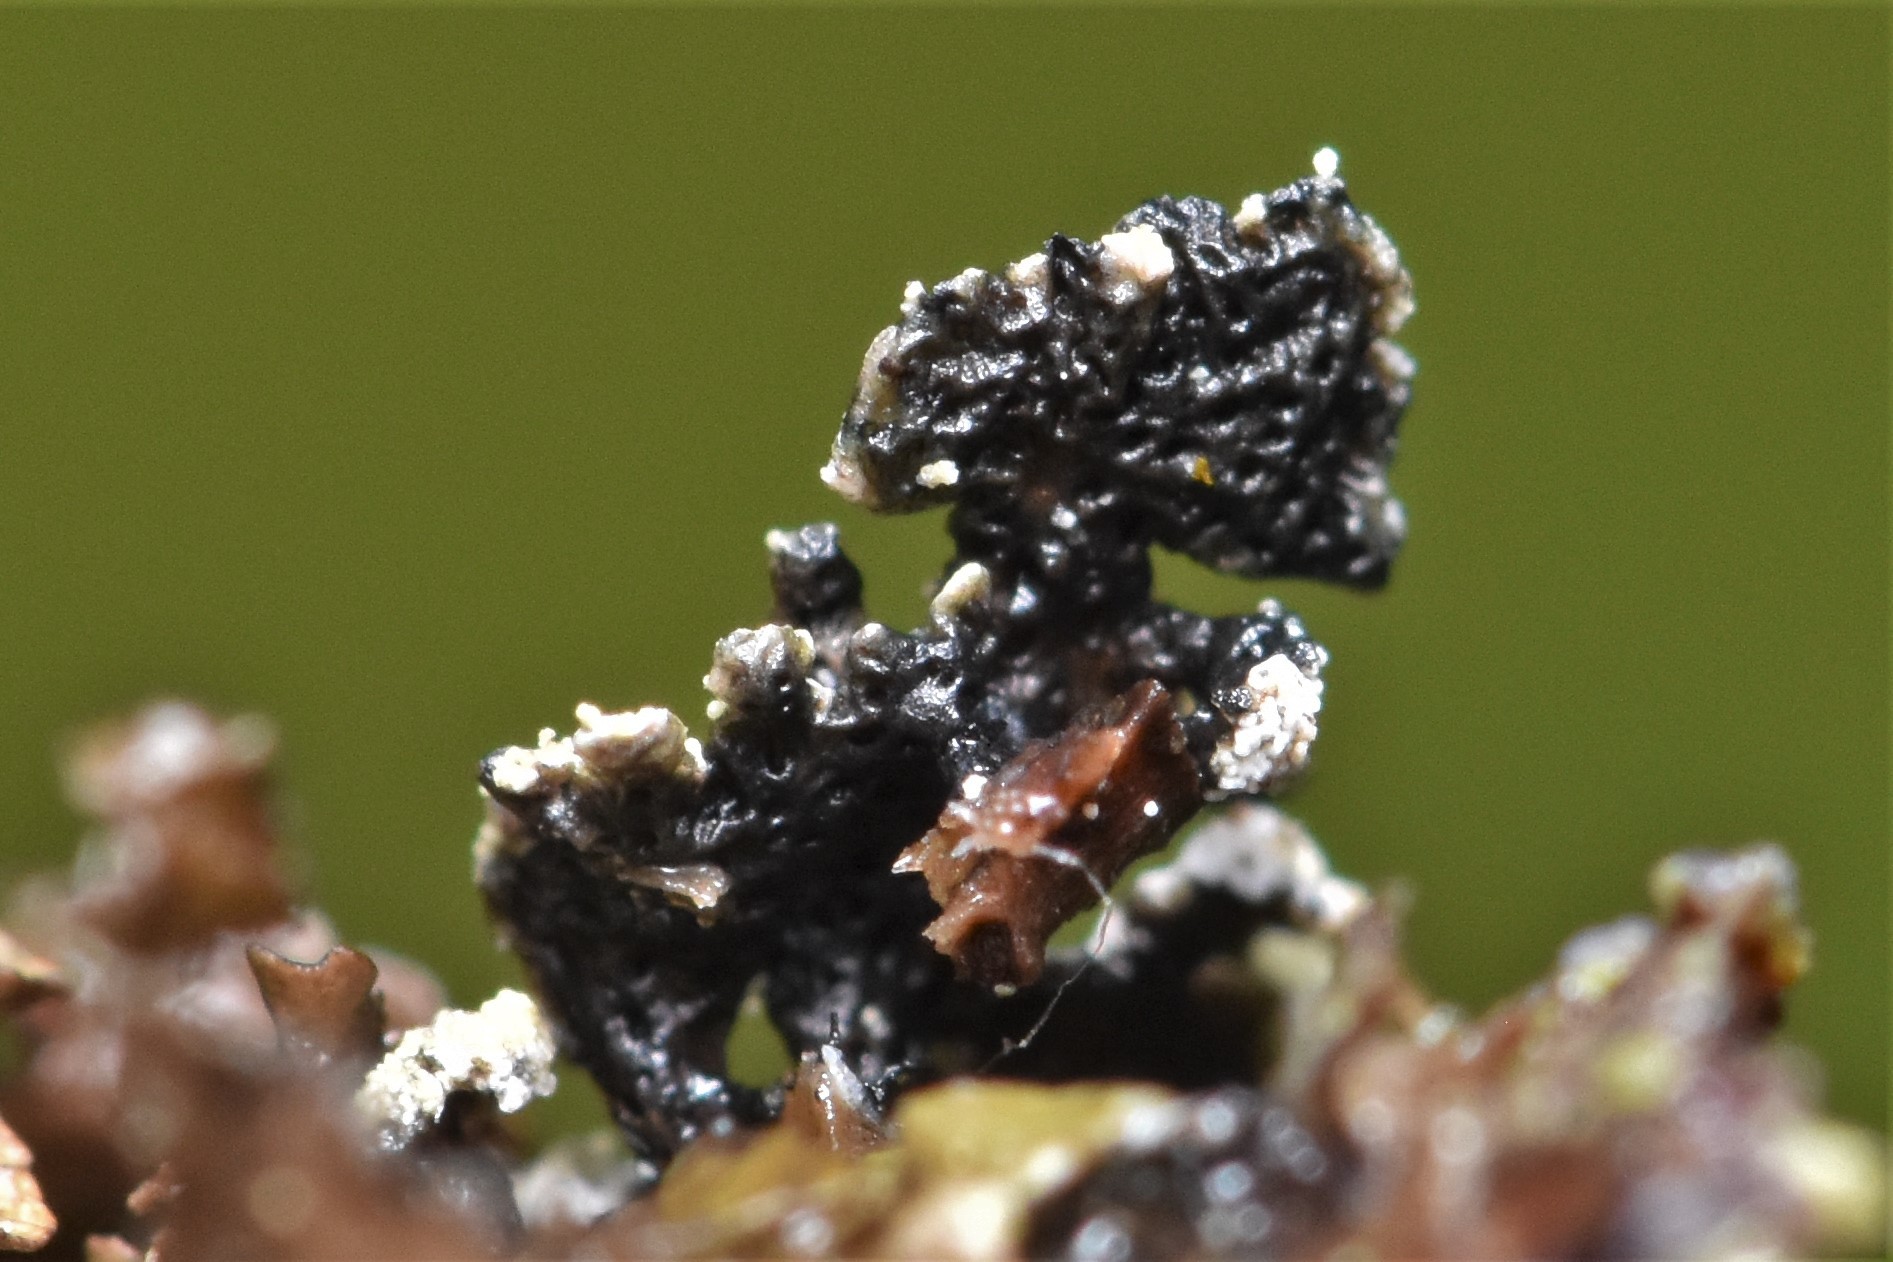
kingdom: Fungi
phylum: Ascomycota
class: Lecanoromycetes
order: Lecanorales
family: Parmeliaceae
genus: Hypogymnia
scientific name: Hypogymnia hultenii
